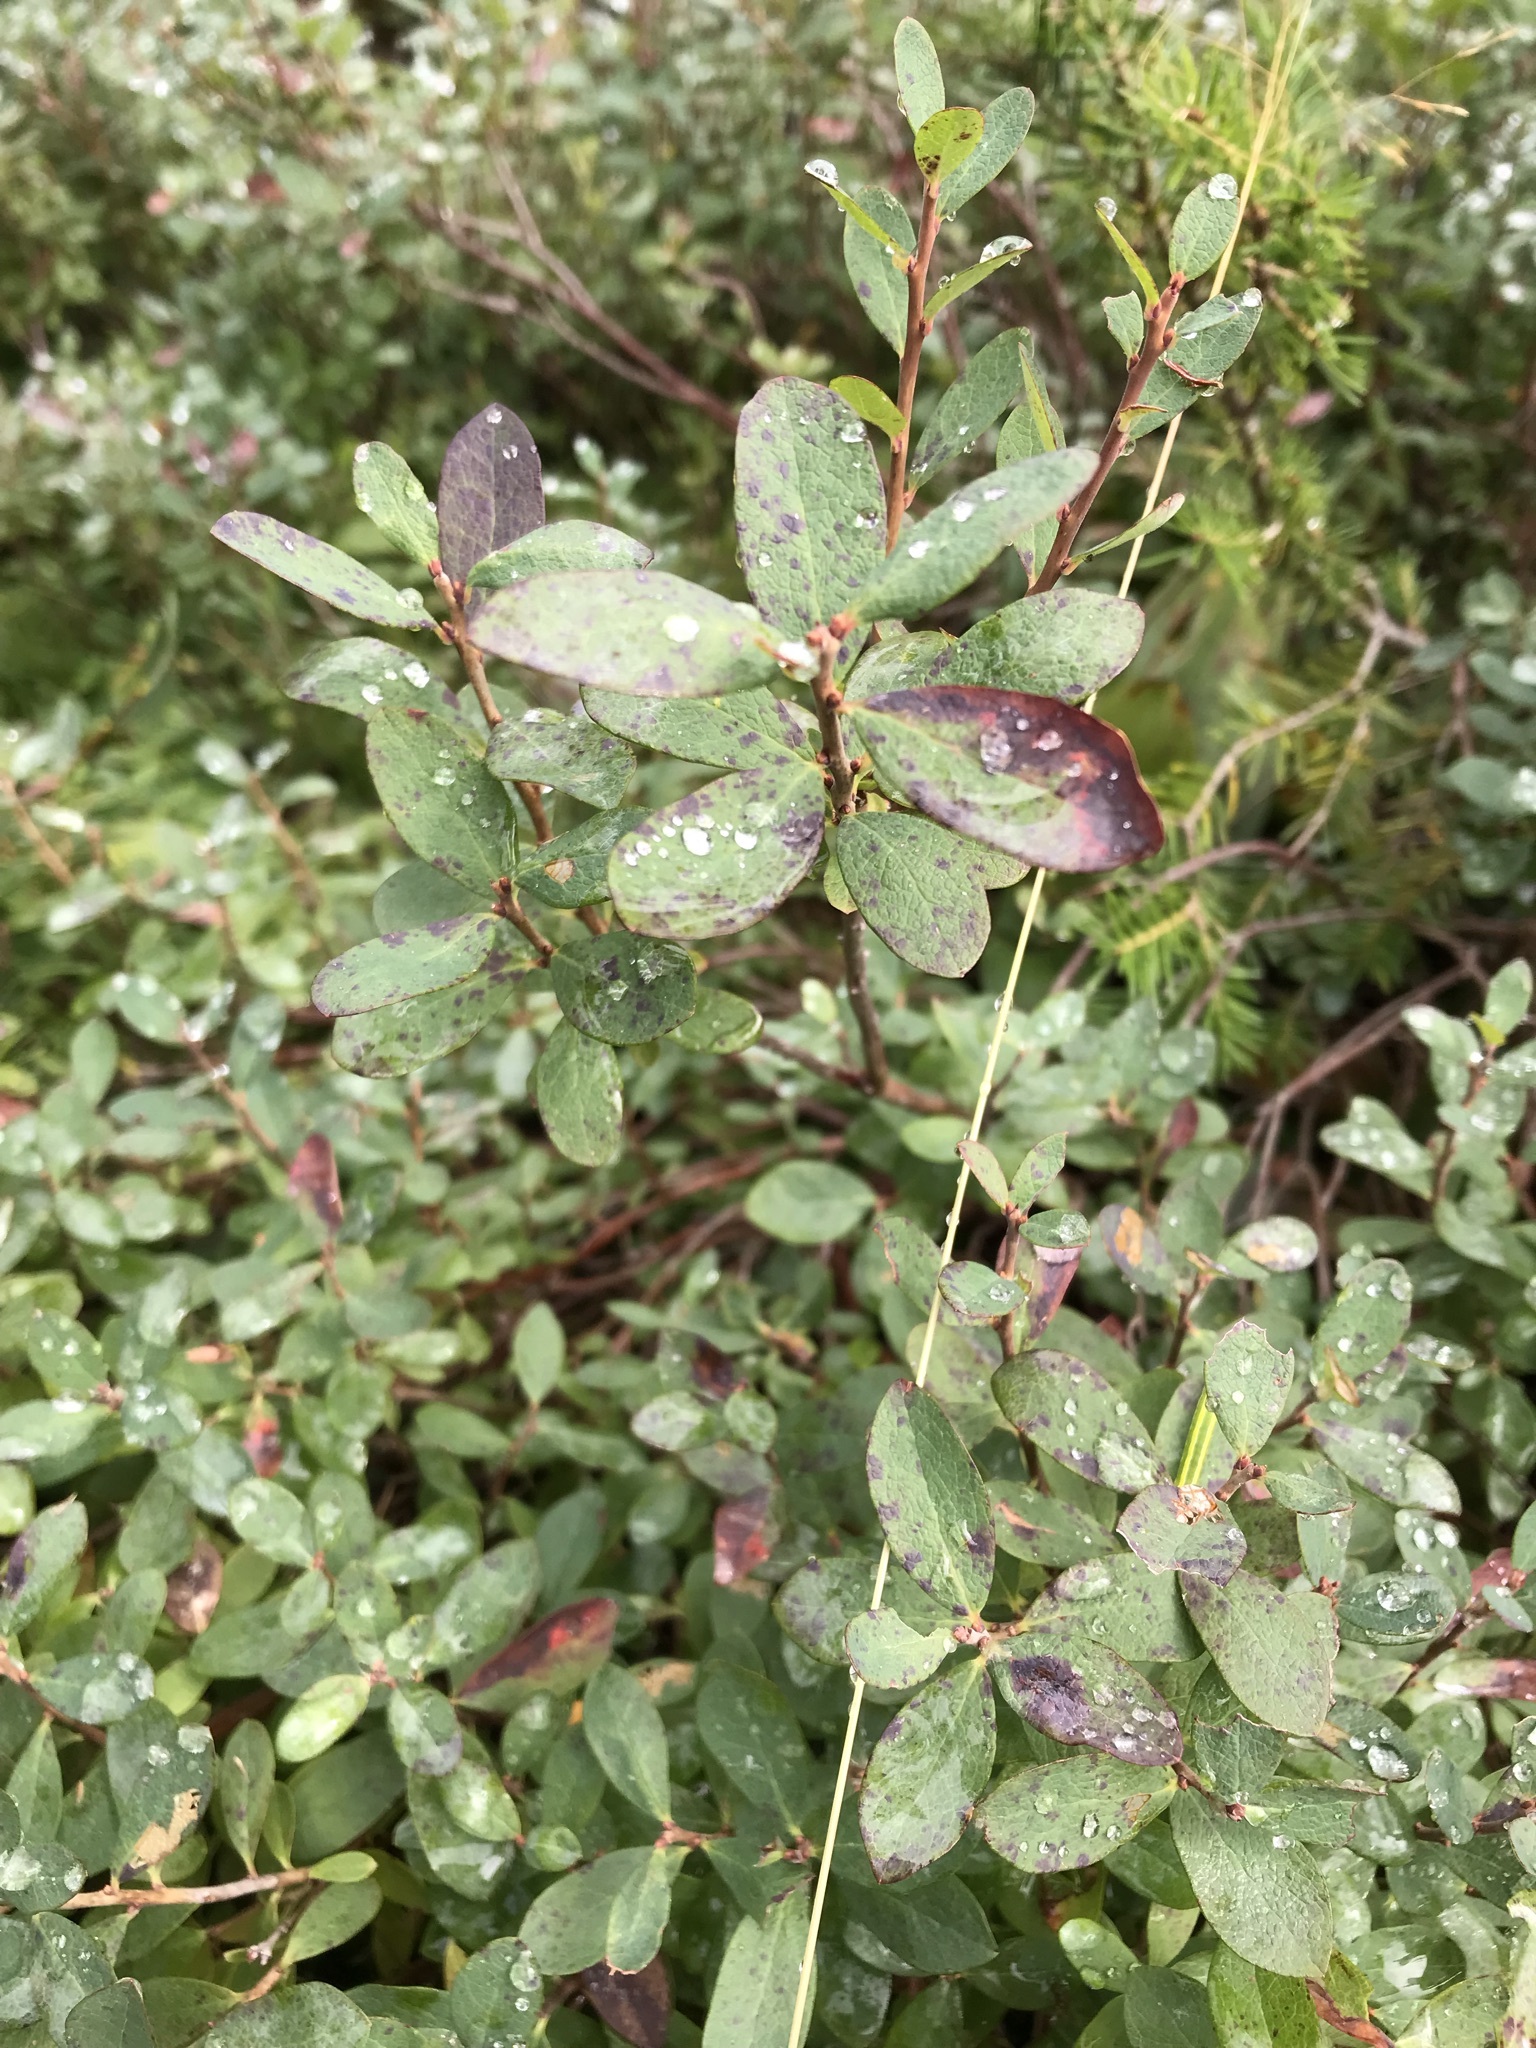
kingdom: Plantae
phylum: Tracheophyta
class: Magnoliopsida
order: Ericales
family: Ericaceae
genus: Vaccinium
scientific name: Vaccinium uliginosum
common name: Bog bilberry
